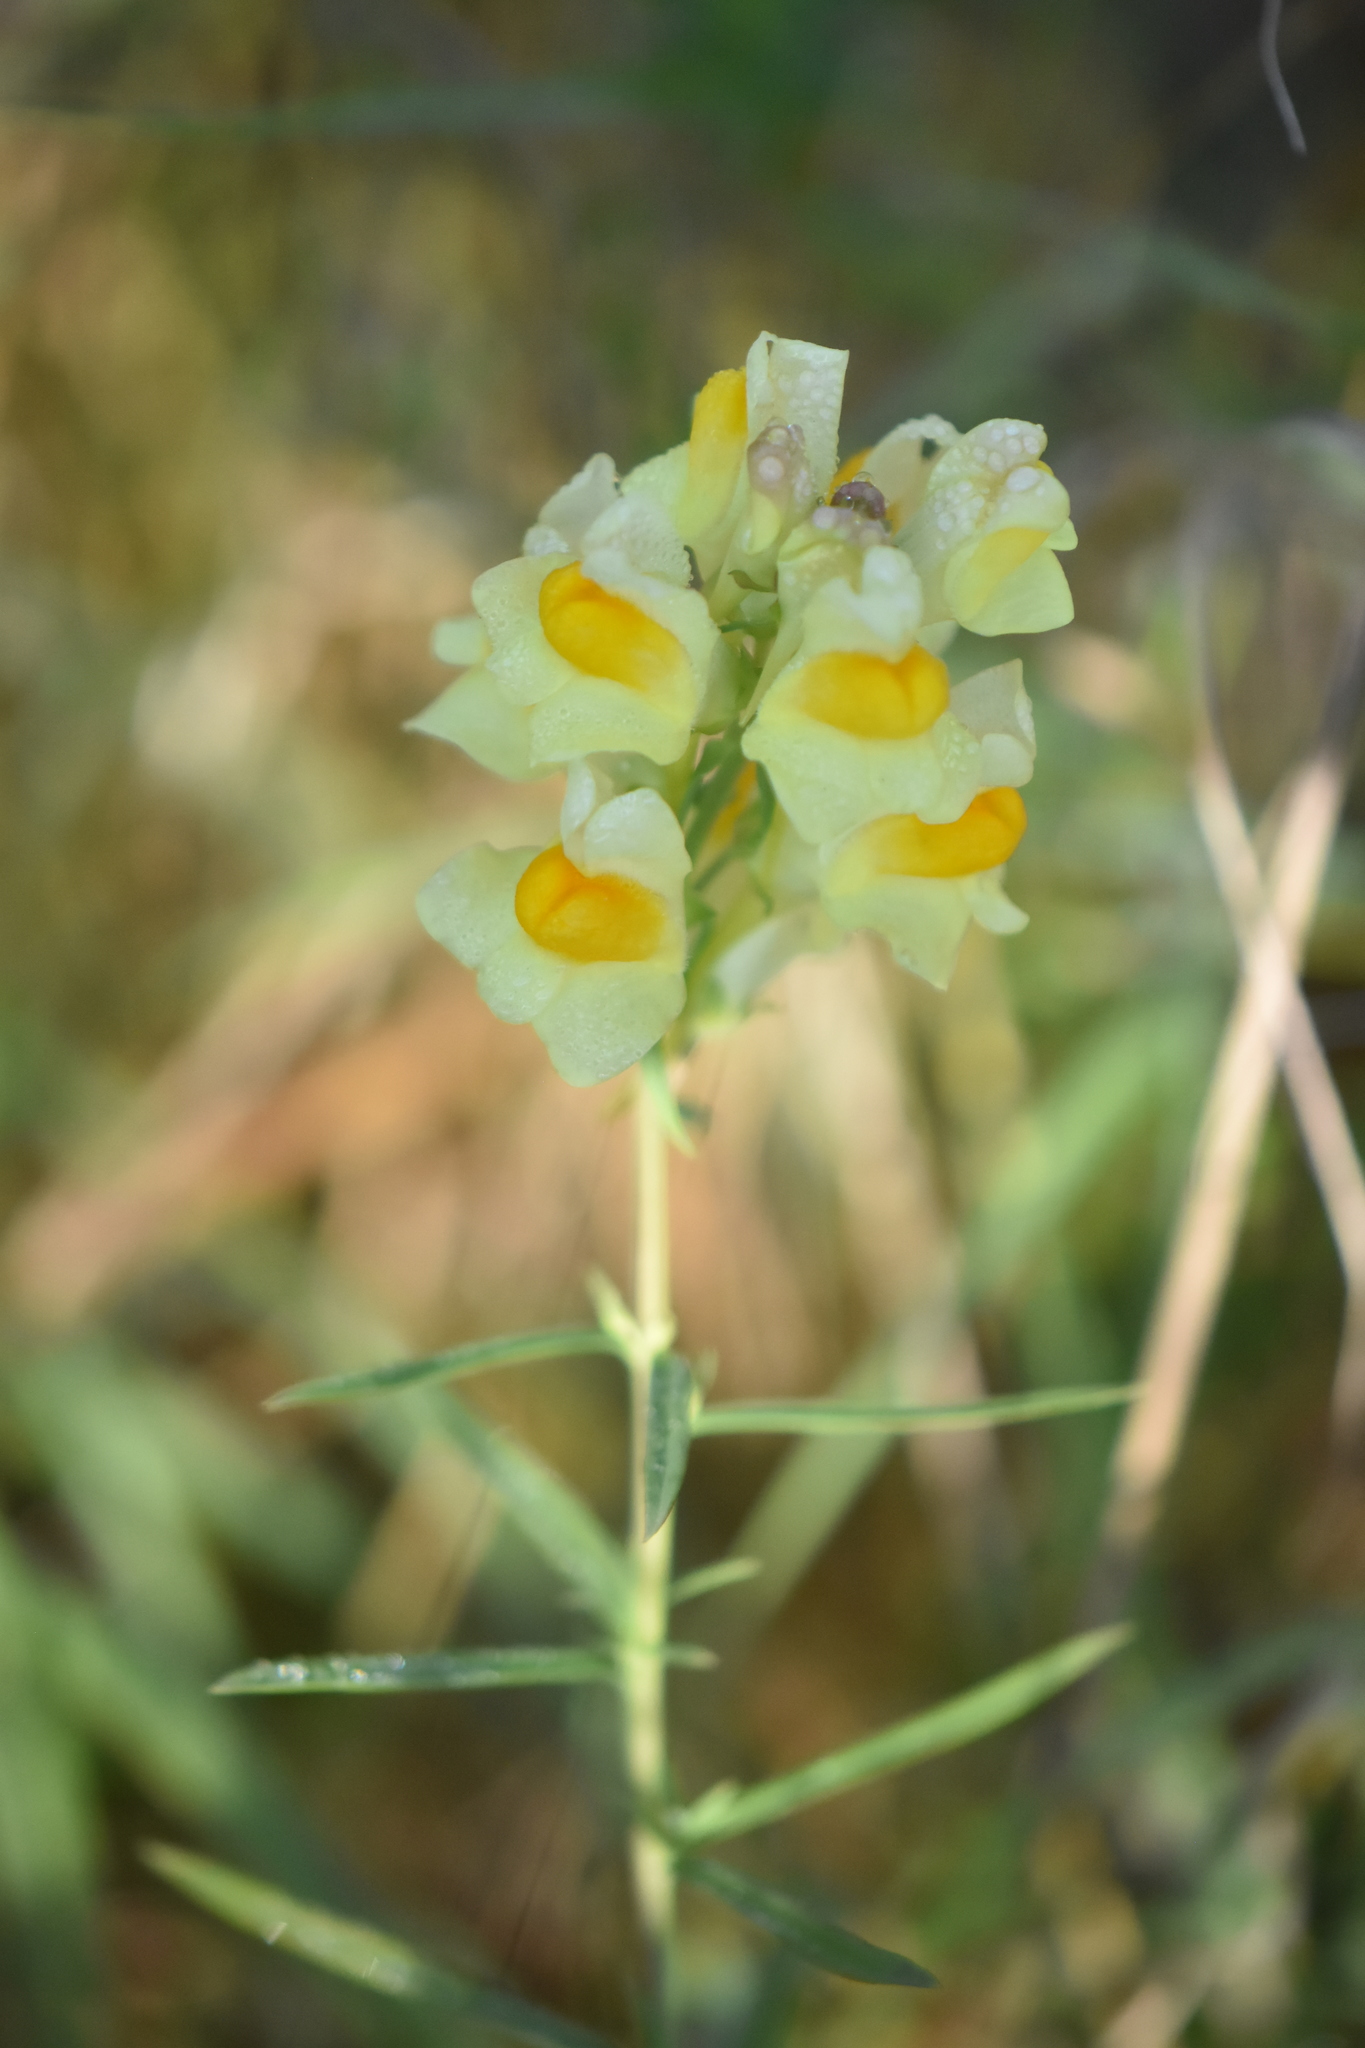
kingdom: Plantae
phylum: Tracheophyta
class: Magnoliopsida
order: Lamiales
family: Plantaginaceae
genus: Linaria
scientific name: Linaria vulgaris
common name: Butter and eggs
